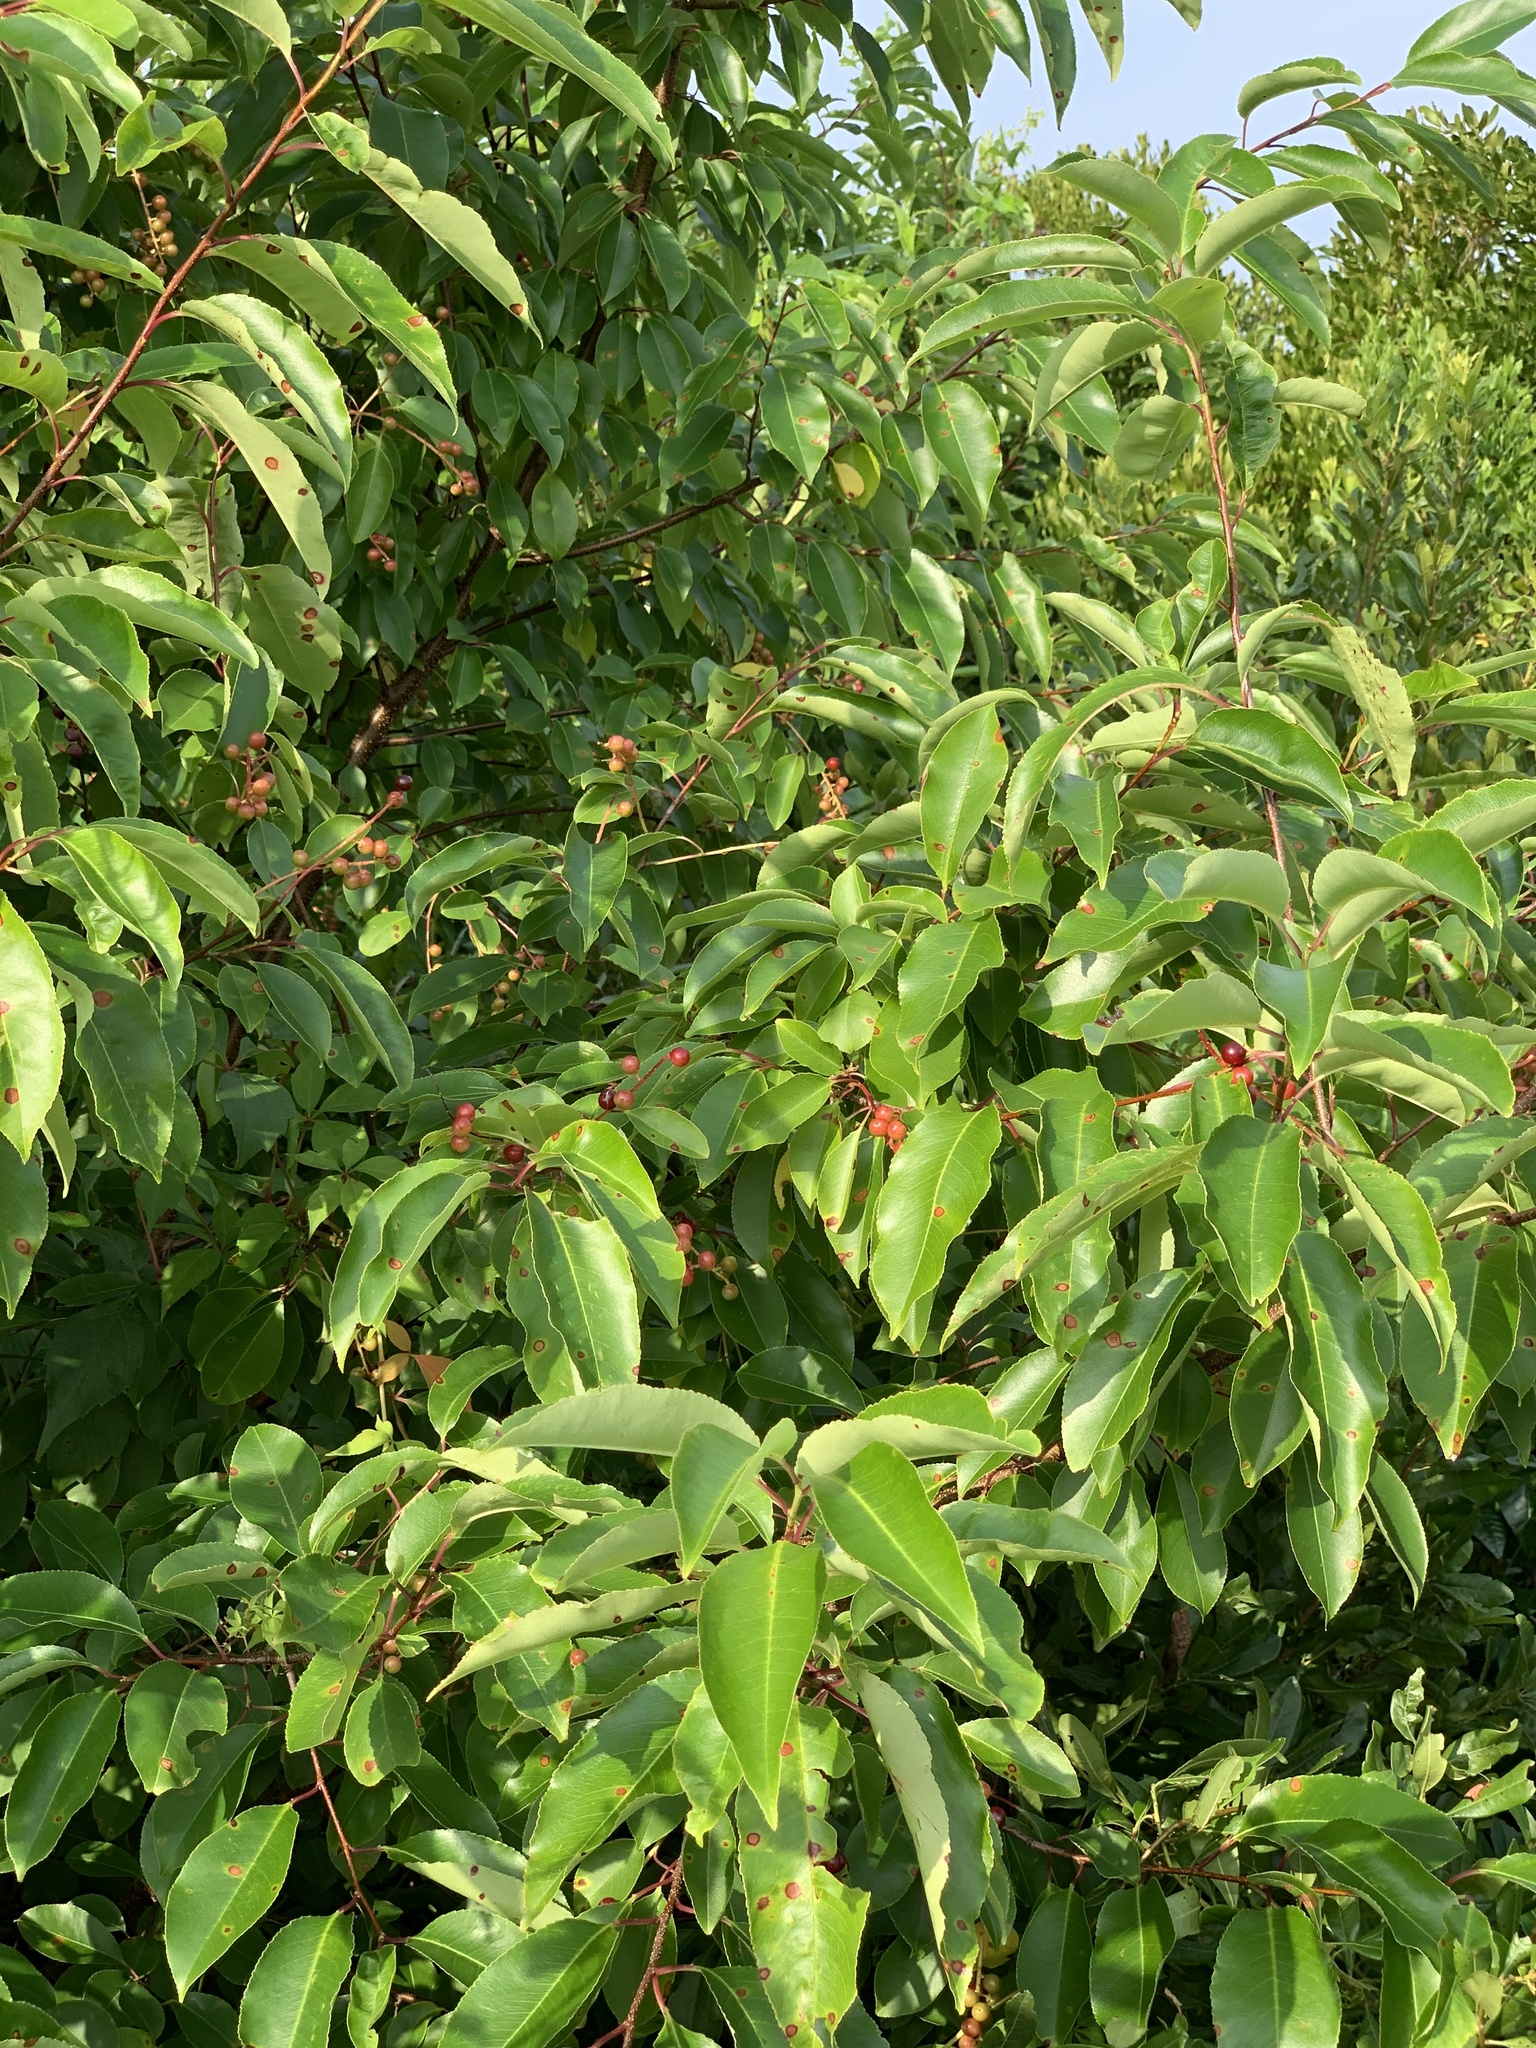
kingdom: Plantae
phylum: Tracheophyta
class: Magnoliopsida
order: Rosales
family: Rosaceae
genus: Prunus
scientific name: Prunus serotina
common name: Black cherry
